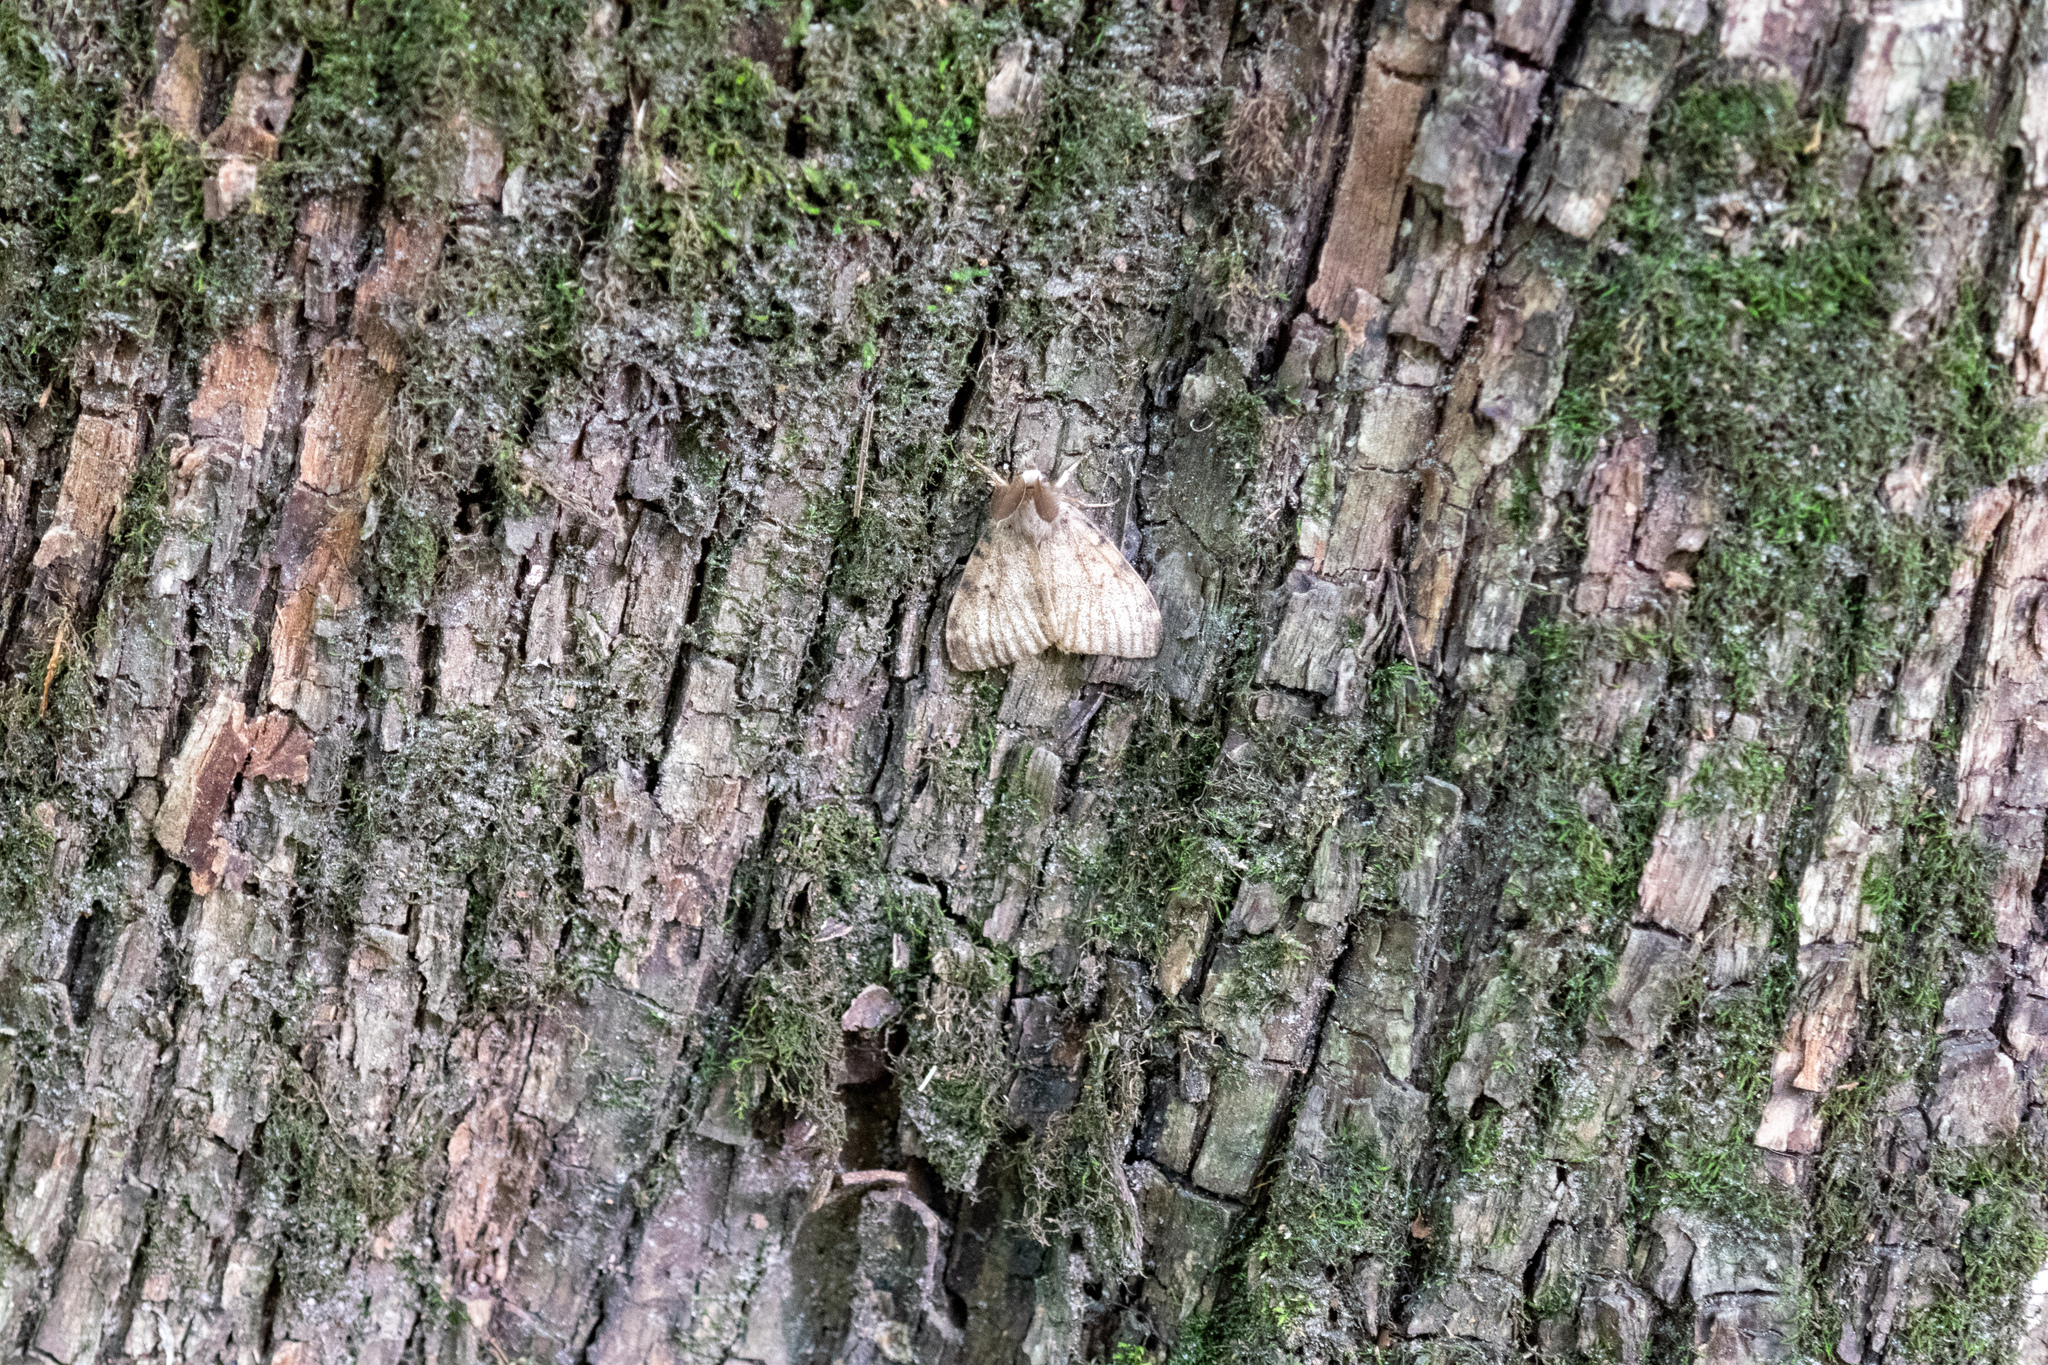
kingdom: Animalia
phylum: Arthropoda
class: Insecta
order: Lepidoptera
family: Erebidae
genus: Lymantria
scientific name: Lymantria dispar
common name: Gypsy moth
